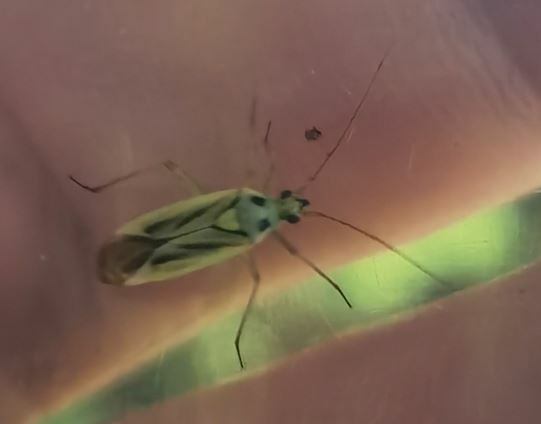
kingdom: Animalia
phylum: Arthropoda
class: Insecta
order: Hemiptera
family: Miridae
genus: Stenotus
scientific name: Stenotus binotatus
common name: Plant bug
